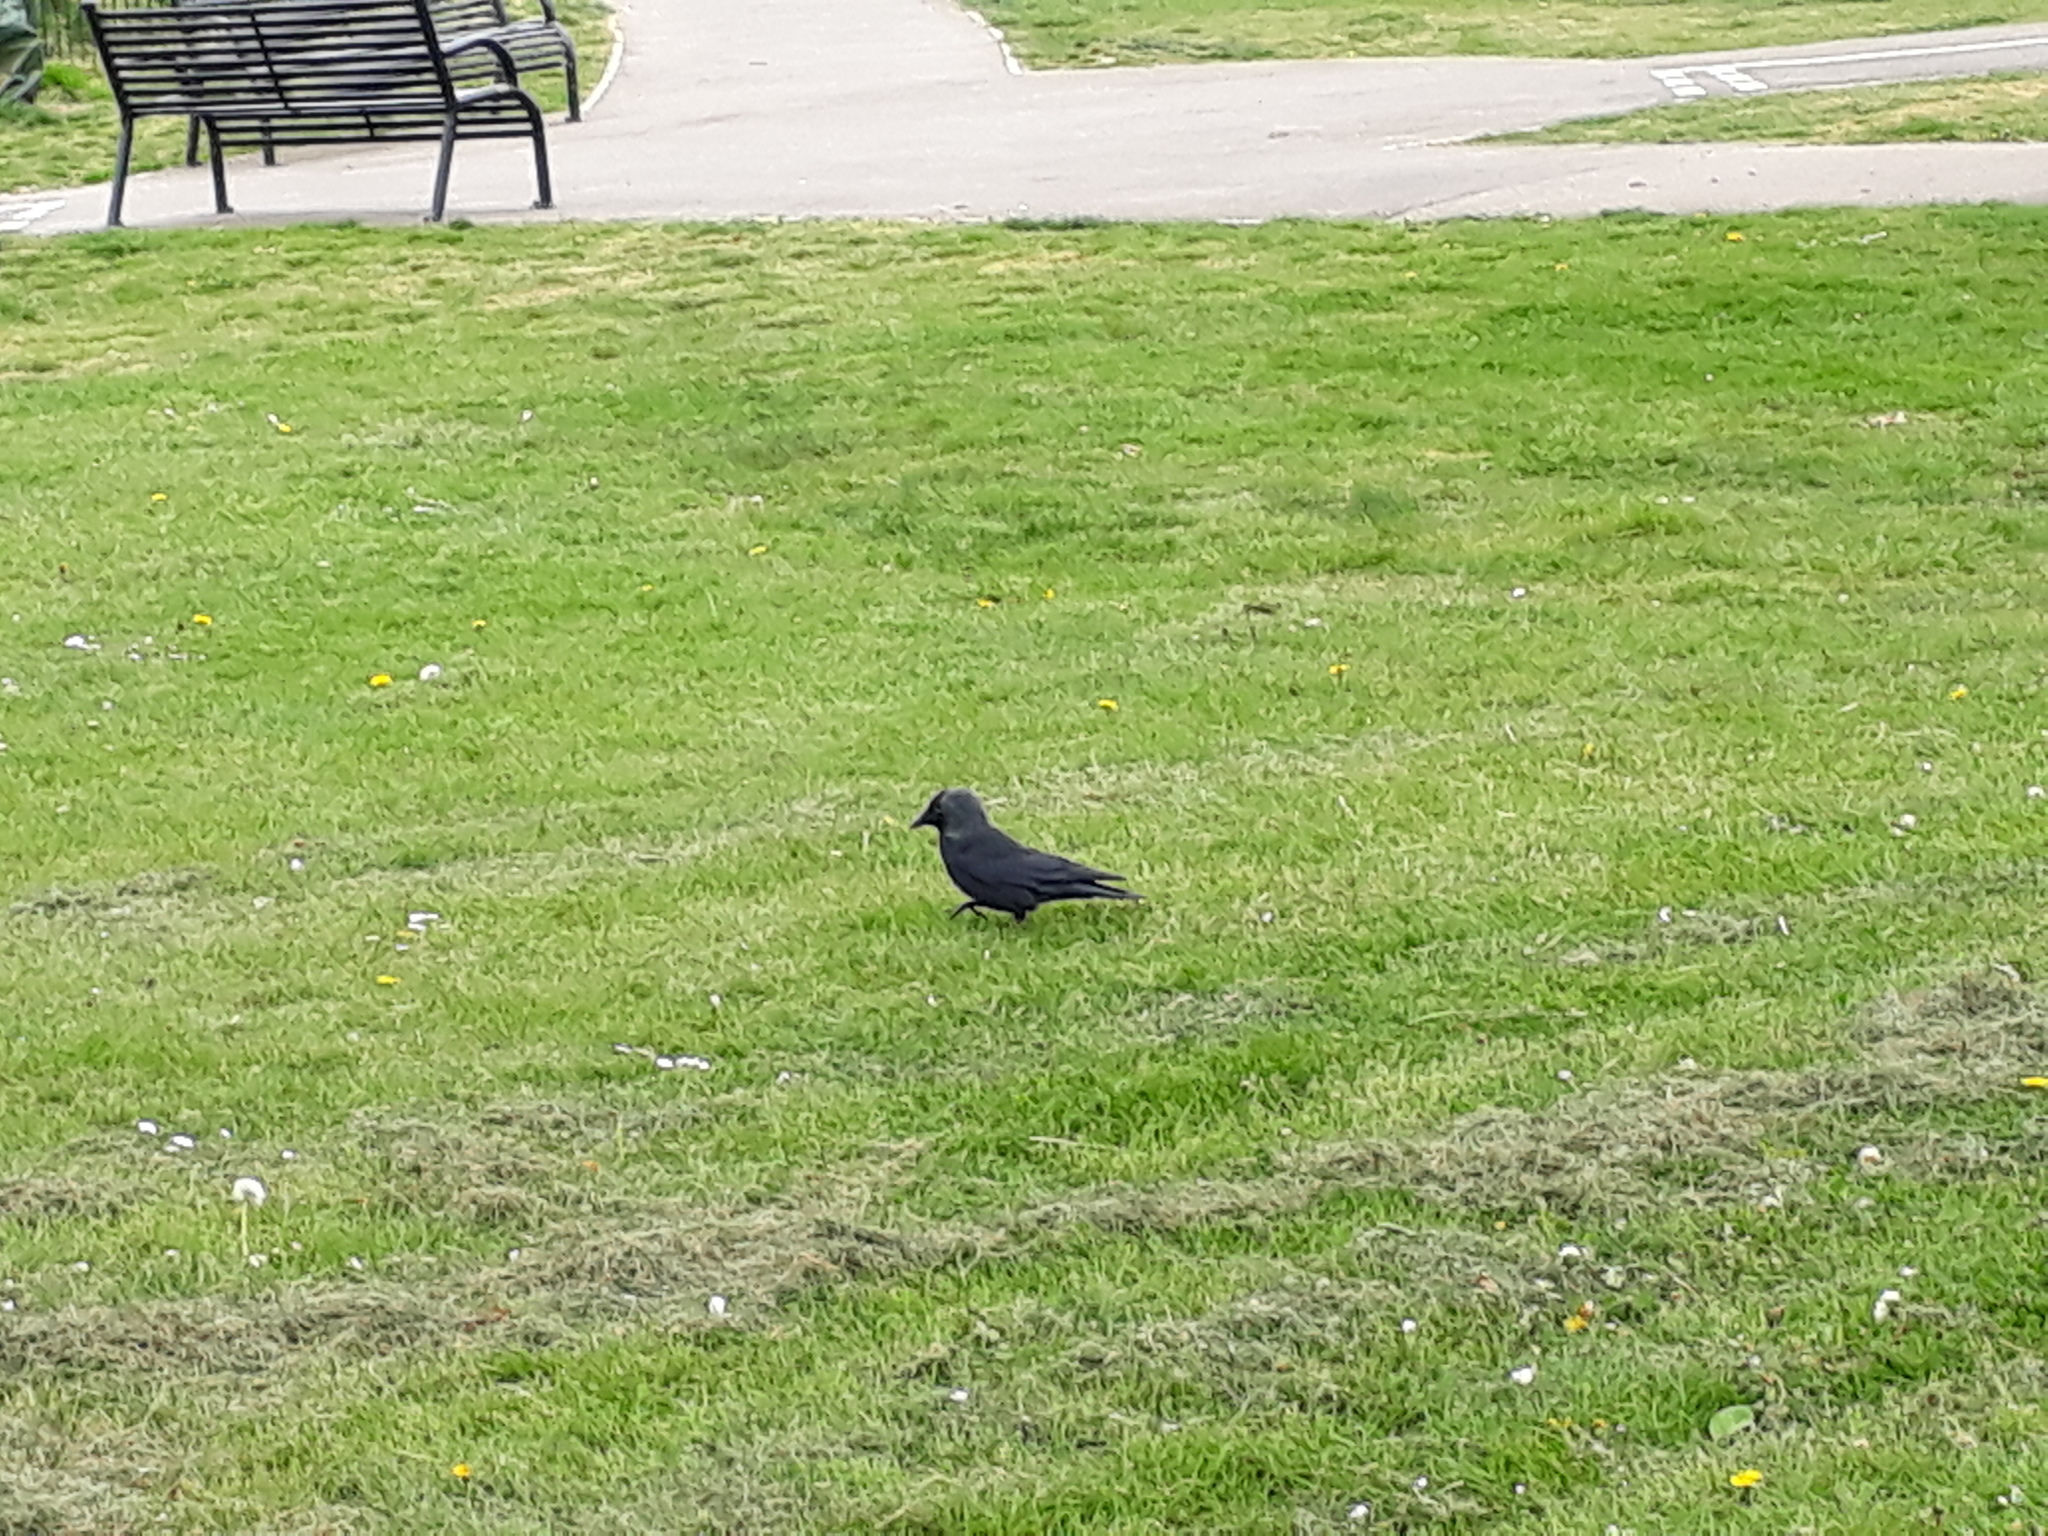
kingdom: Animalia
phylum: Chordata
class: Aves
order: Passeriformes
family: Corvidae
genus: Coloeus
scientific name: Coloeus monedula
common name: Western jackdaw
